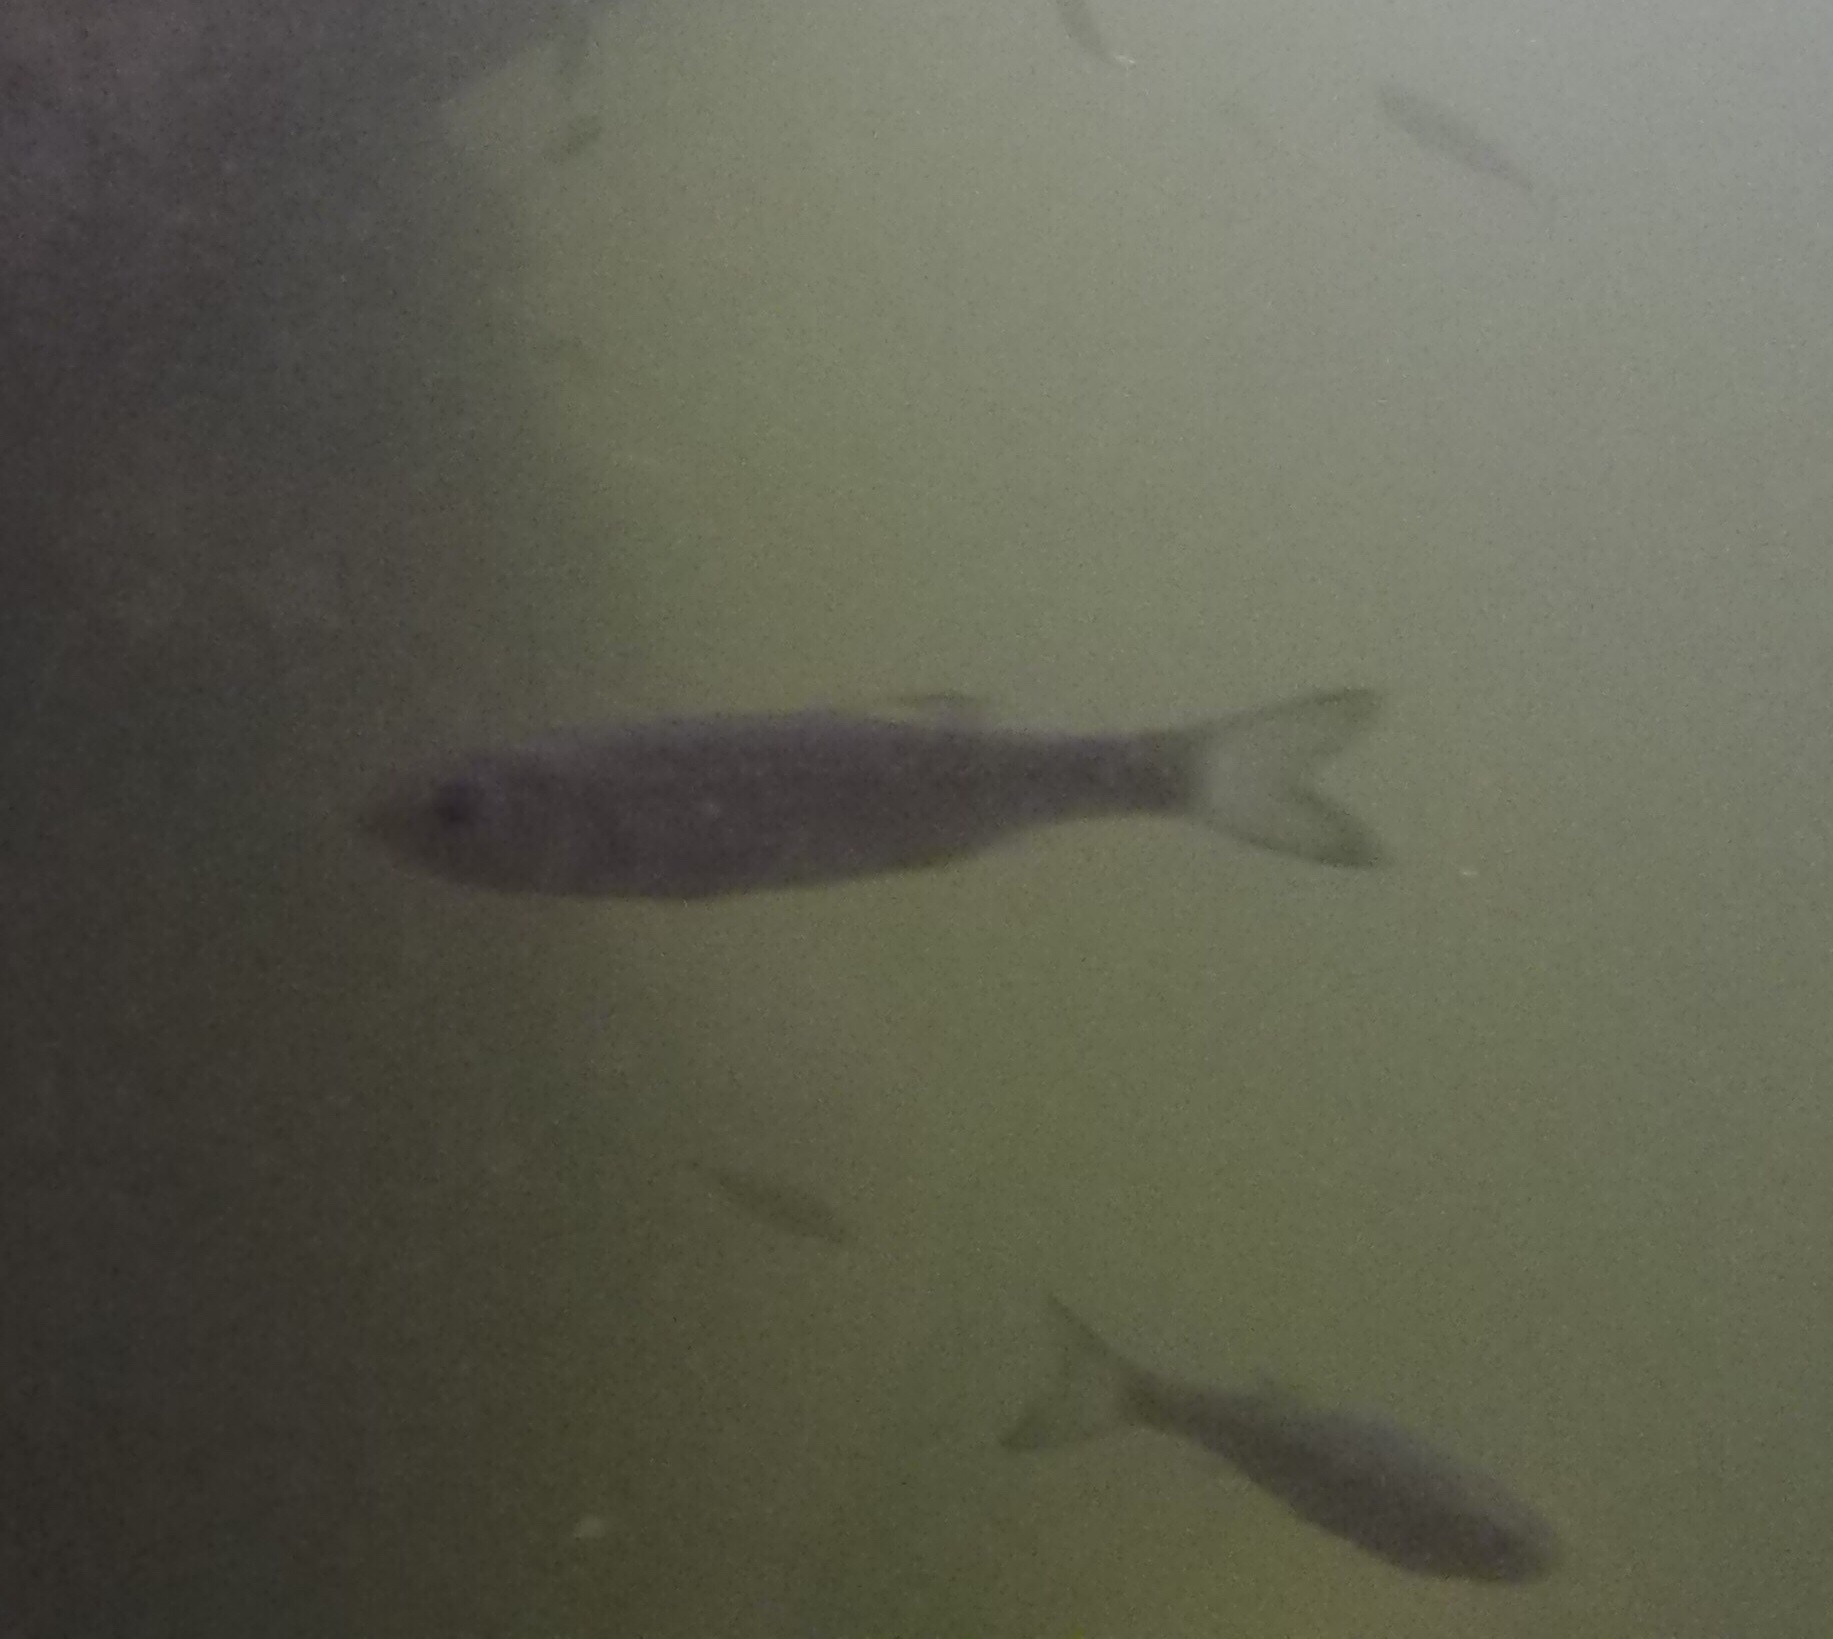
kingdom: Animalia
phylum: Chordata
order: Cypriniformes
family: Cyprinidae
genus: Squalius
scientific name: Squalius laietanus
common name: Catalan chub
